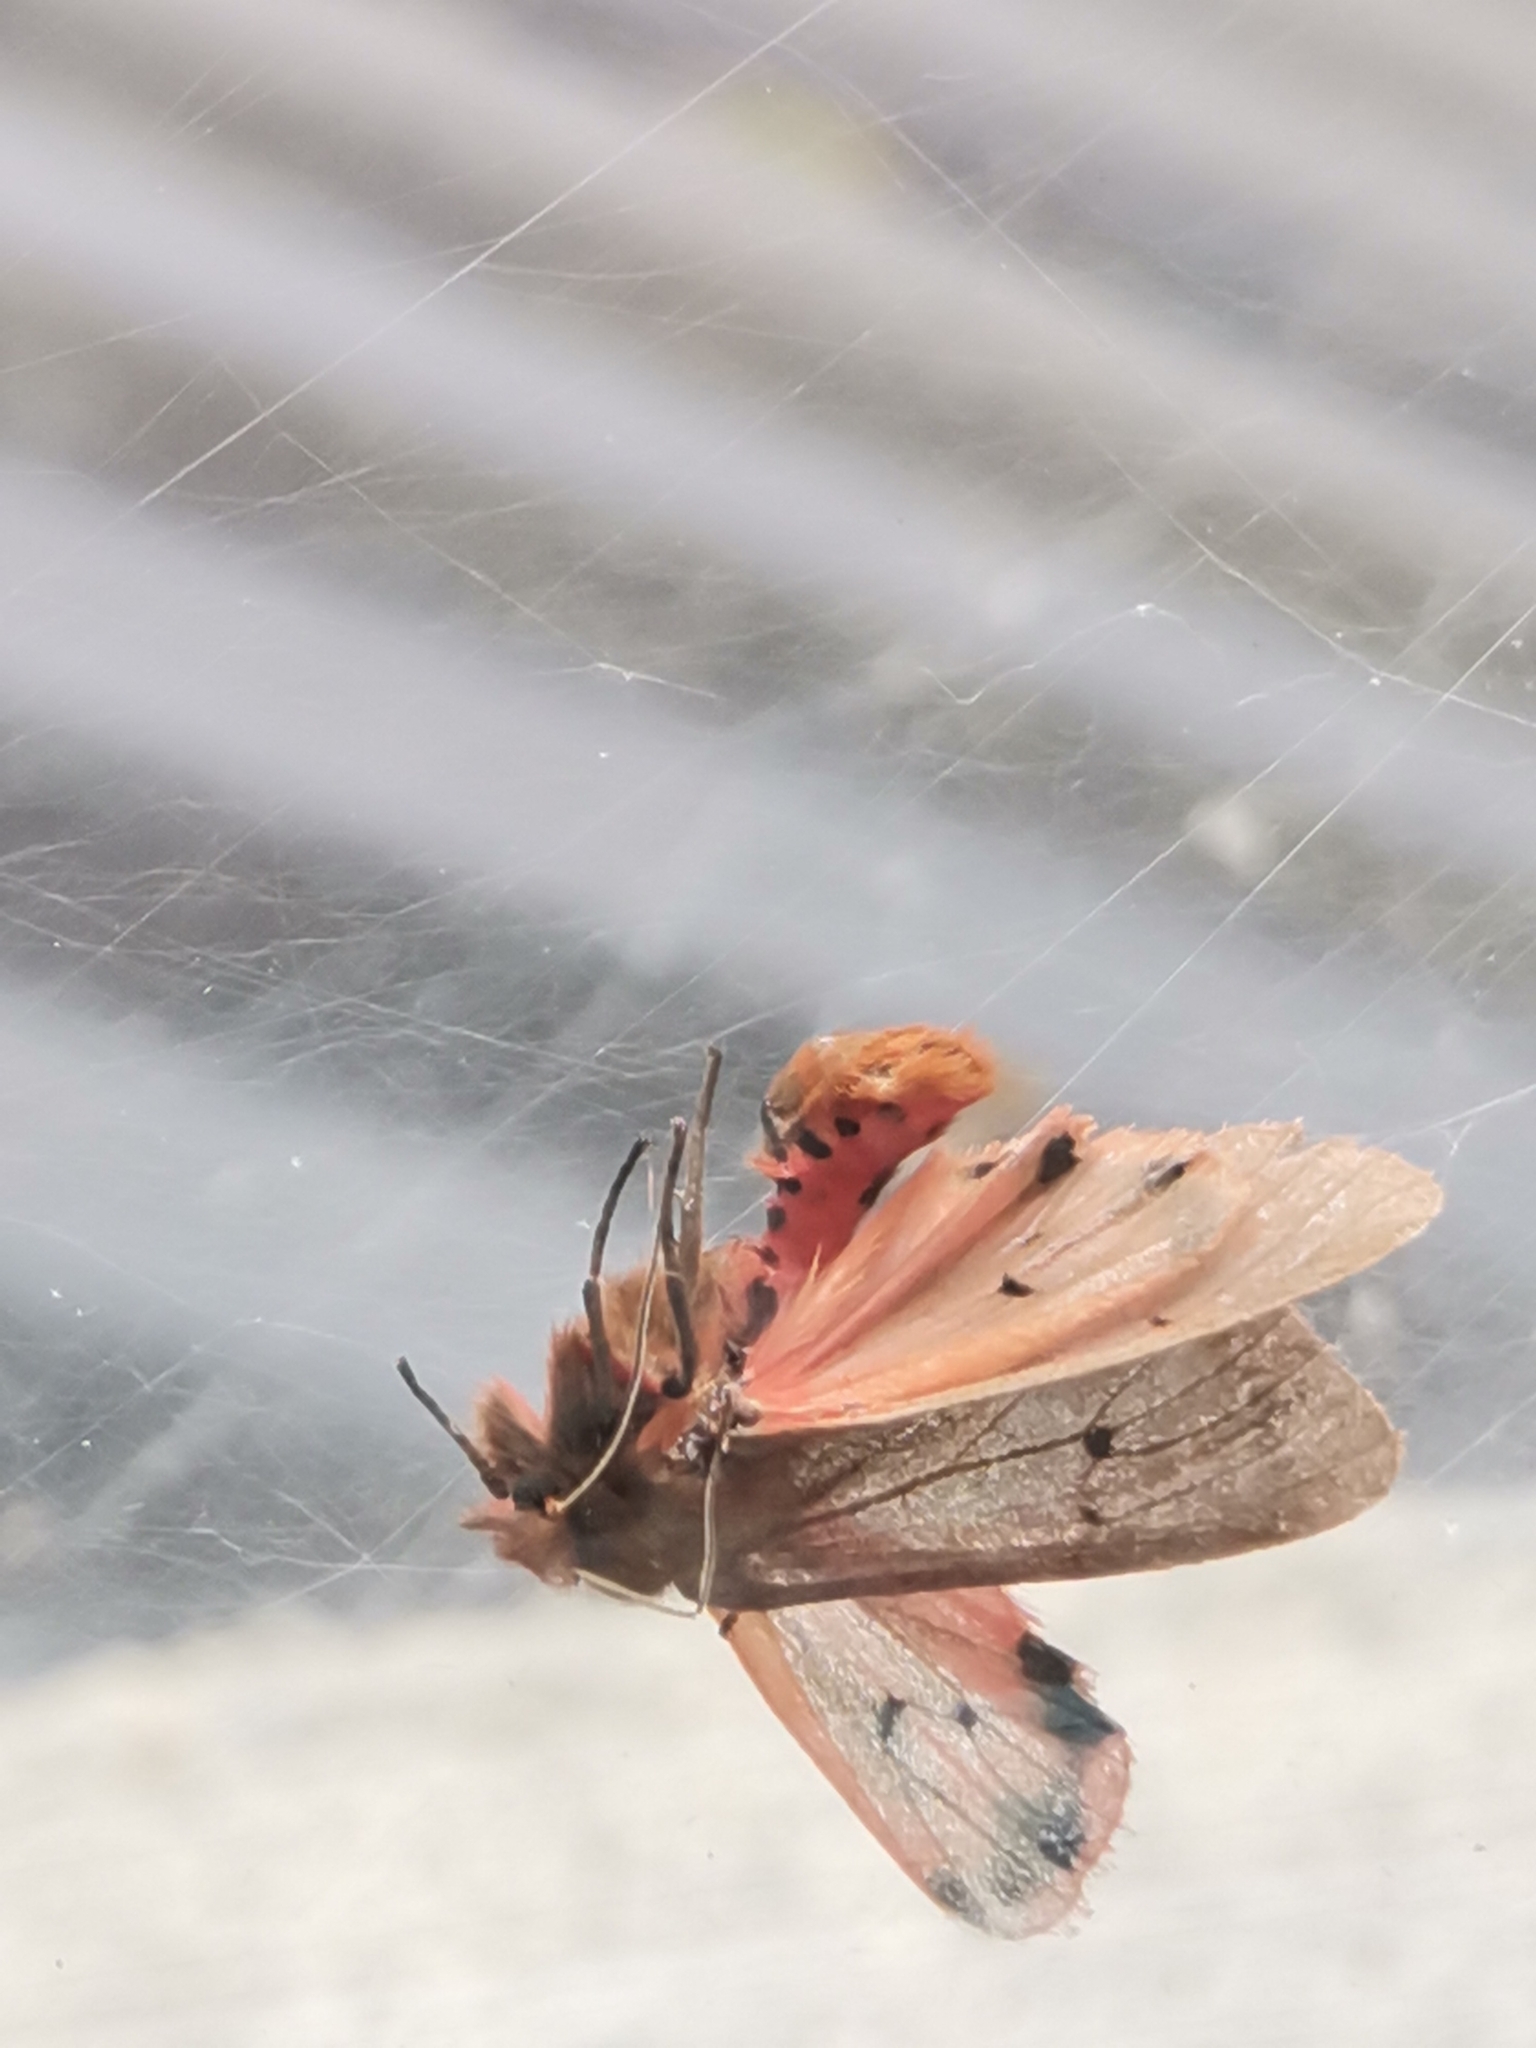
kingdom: Animalia
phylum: Arthropoda
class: Insecta
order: Lepidoptera
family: Erebidae
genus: Phragmatobia
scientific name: Phragmatobia fuliginosa
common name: Ruby tiger
